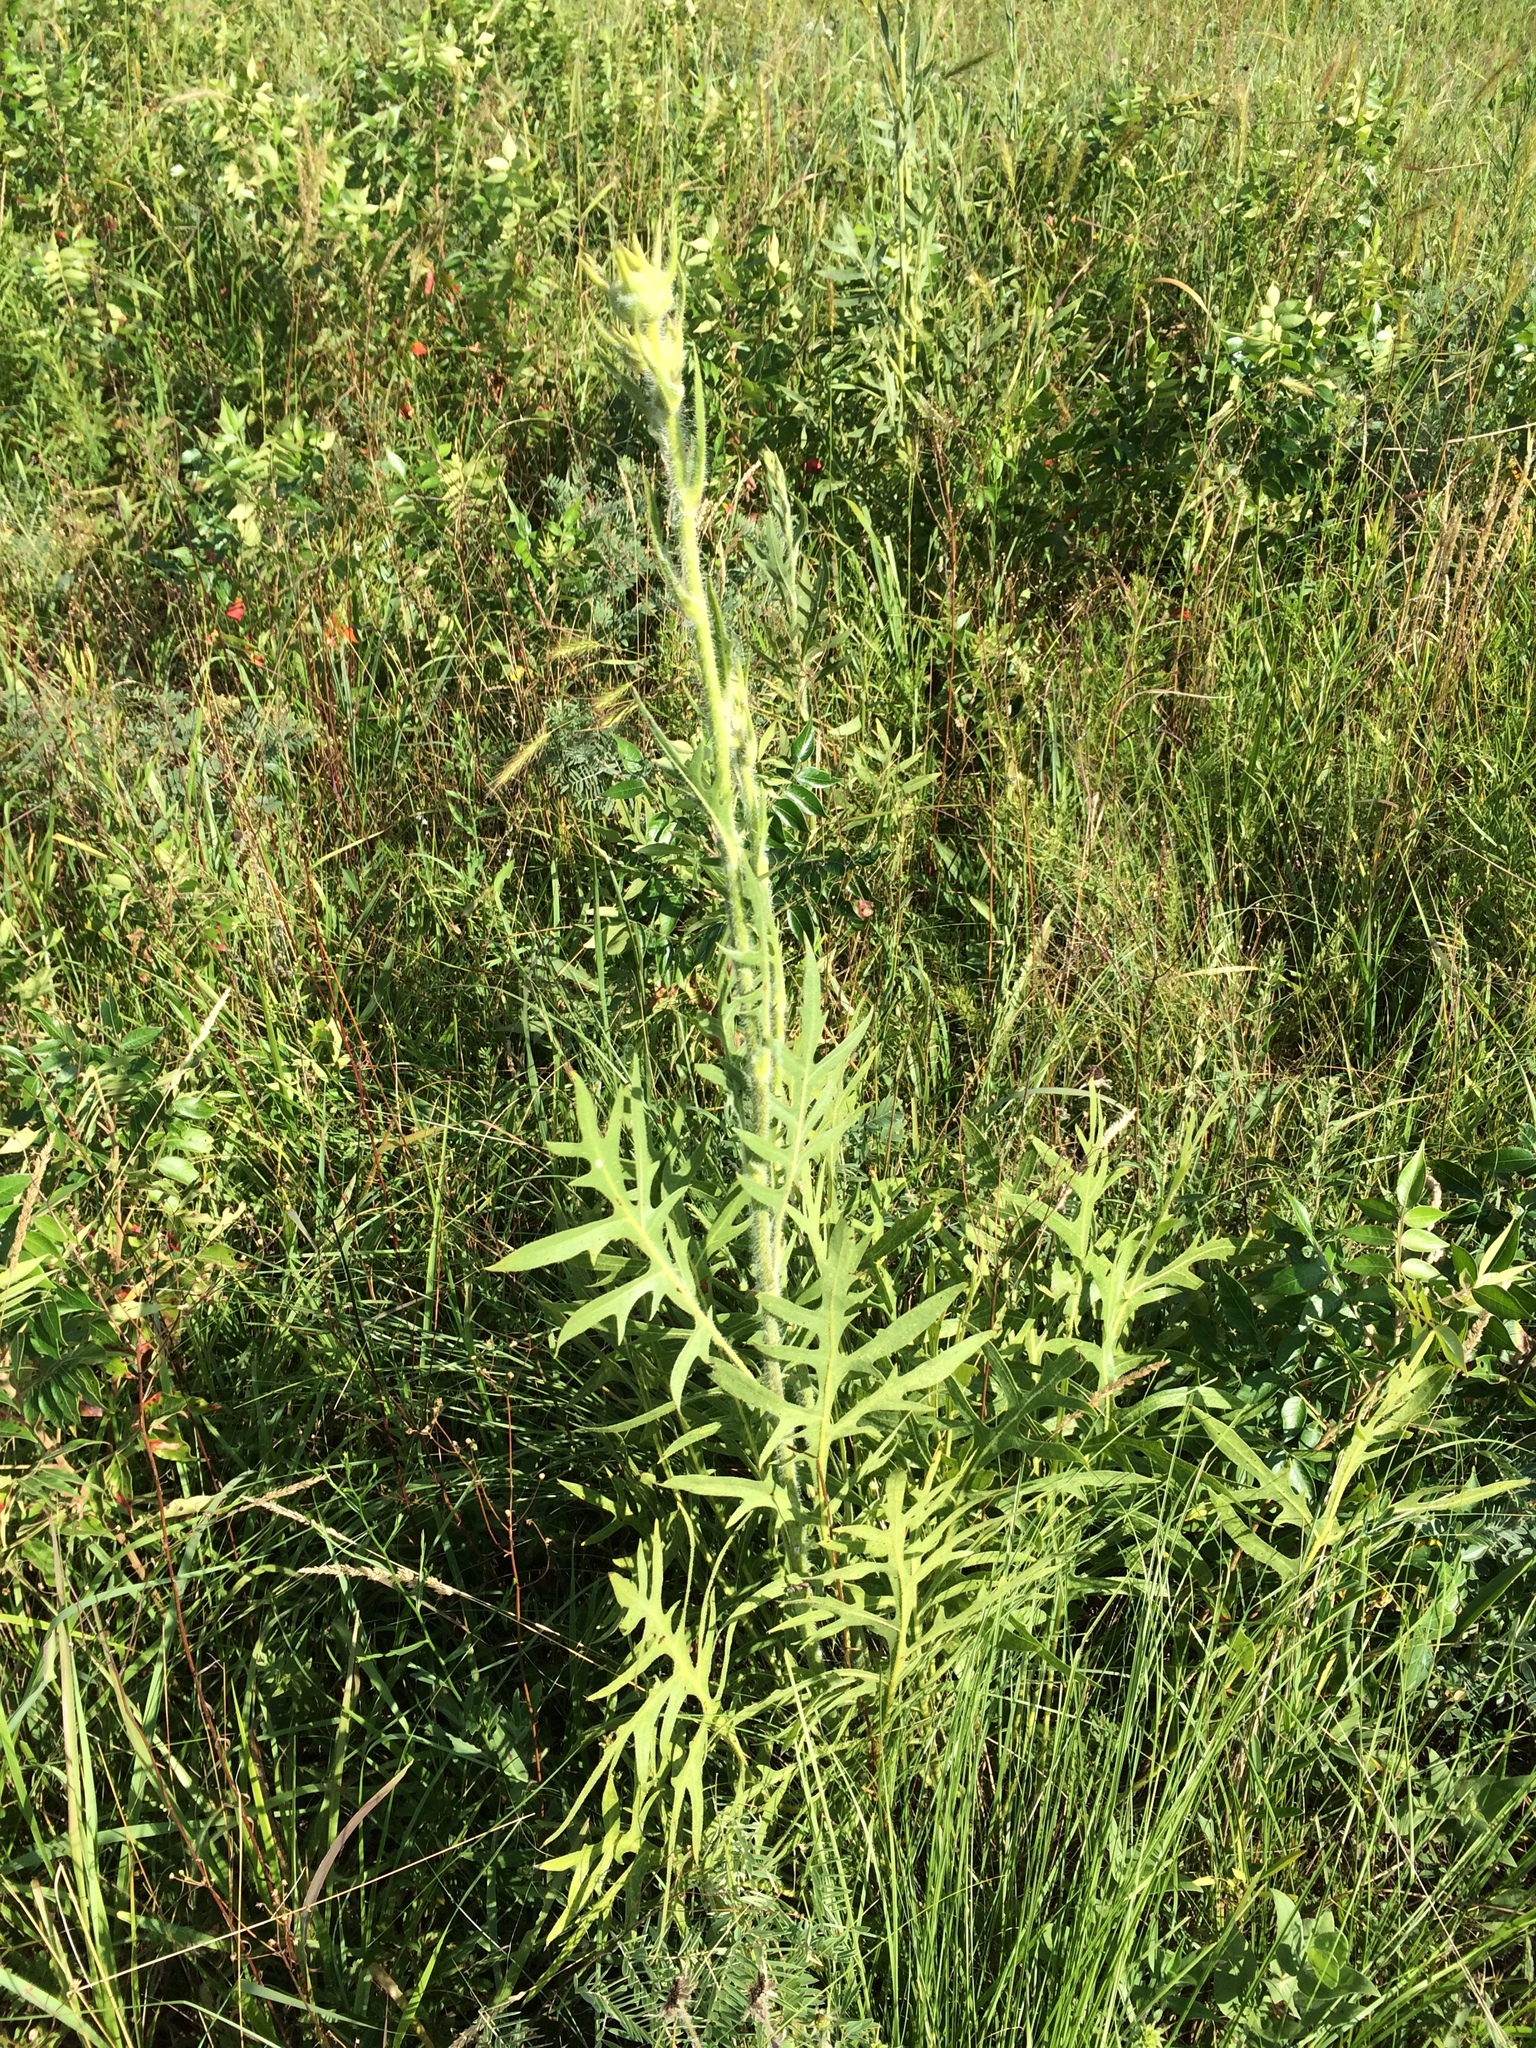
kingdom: Plantae
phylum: Tracheophyta
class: Magnoliopsida
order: Asterales
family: Asteraceae
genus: Silphium
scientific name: Silphium laciniatum
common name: Polarplant
